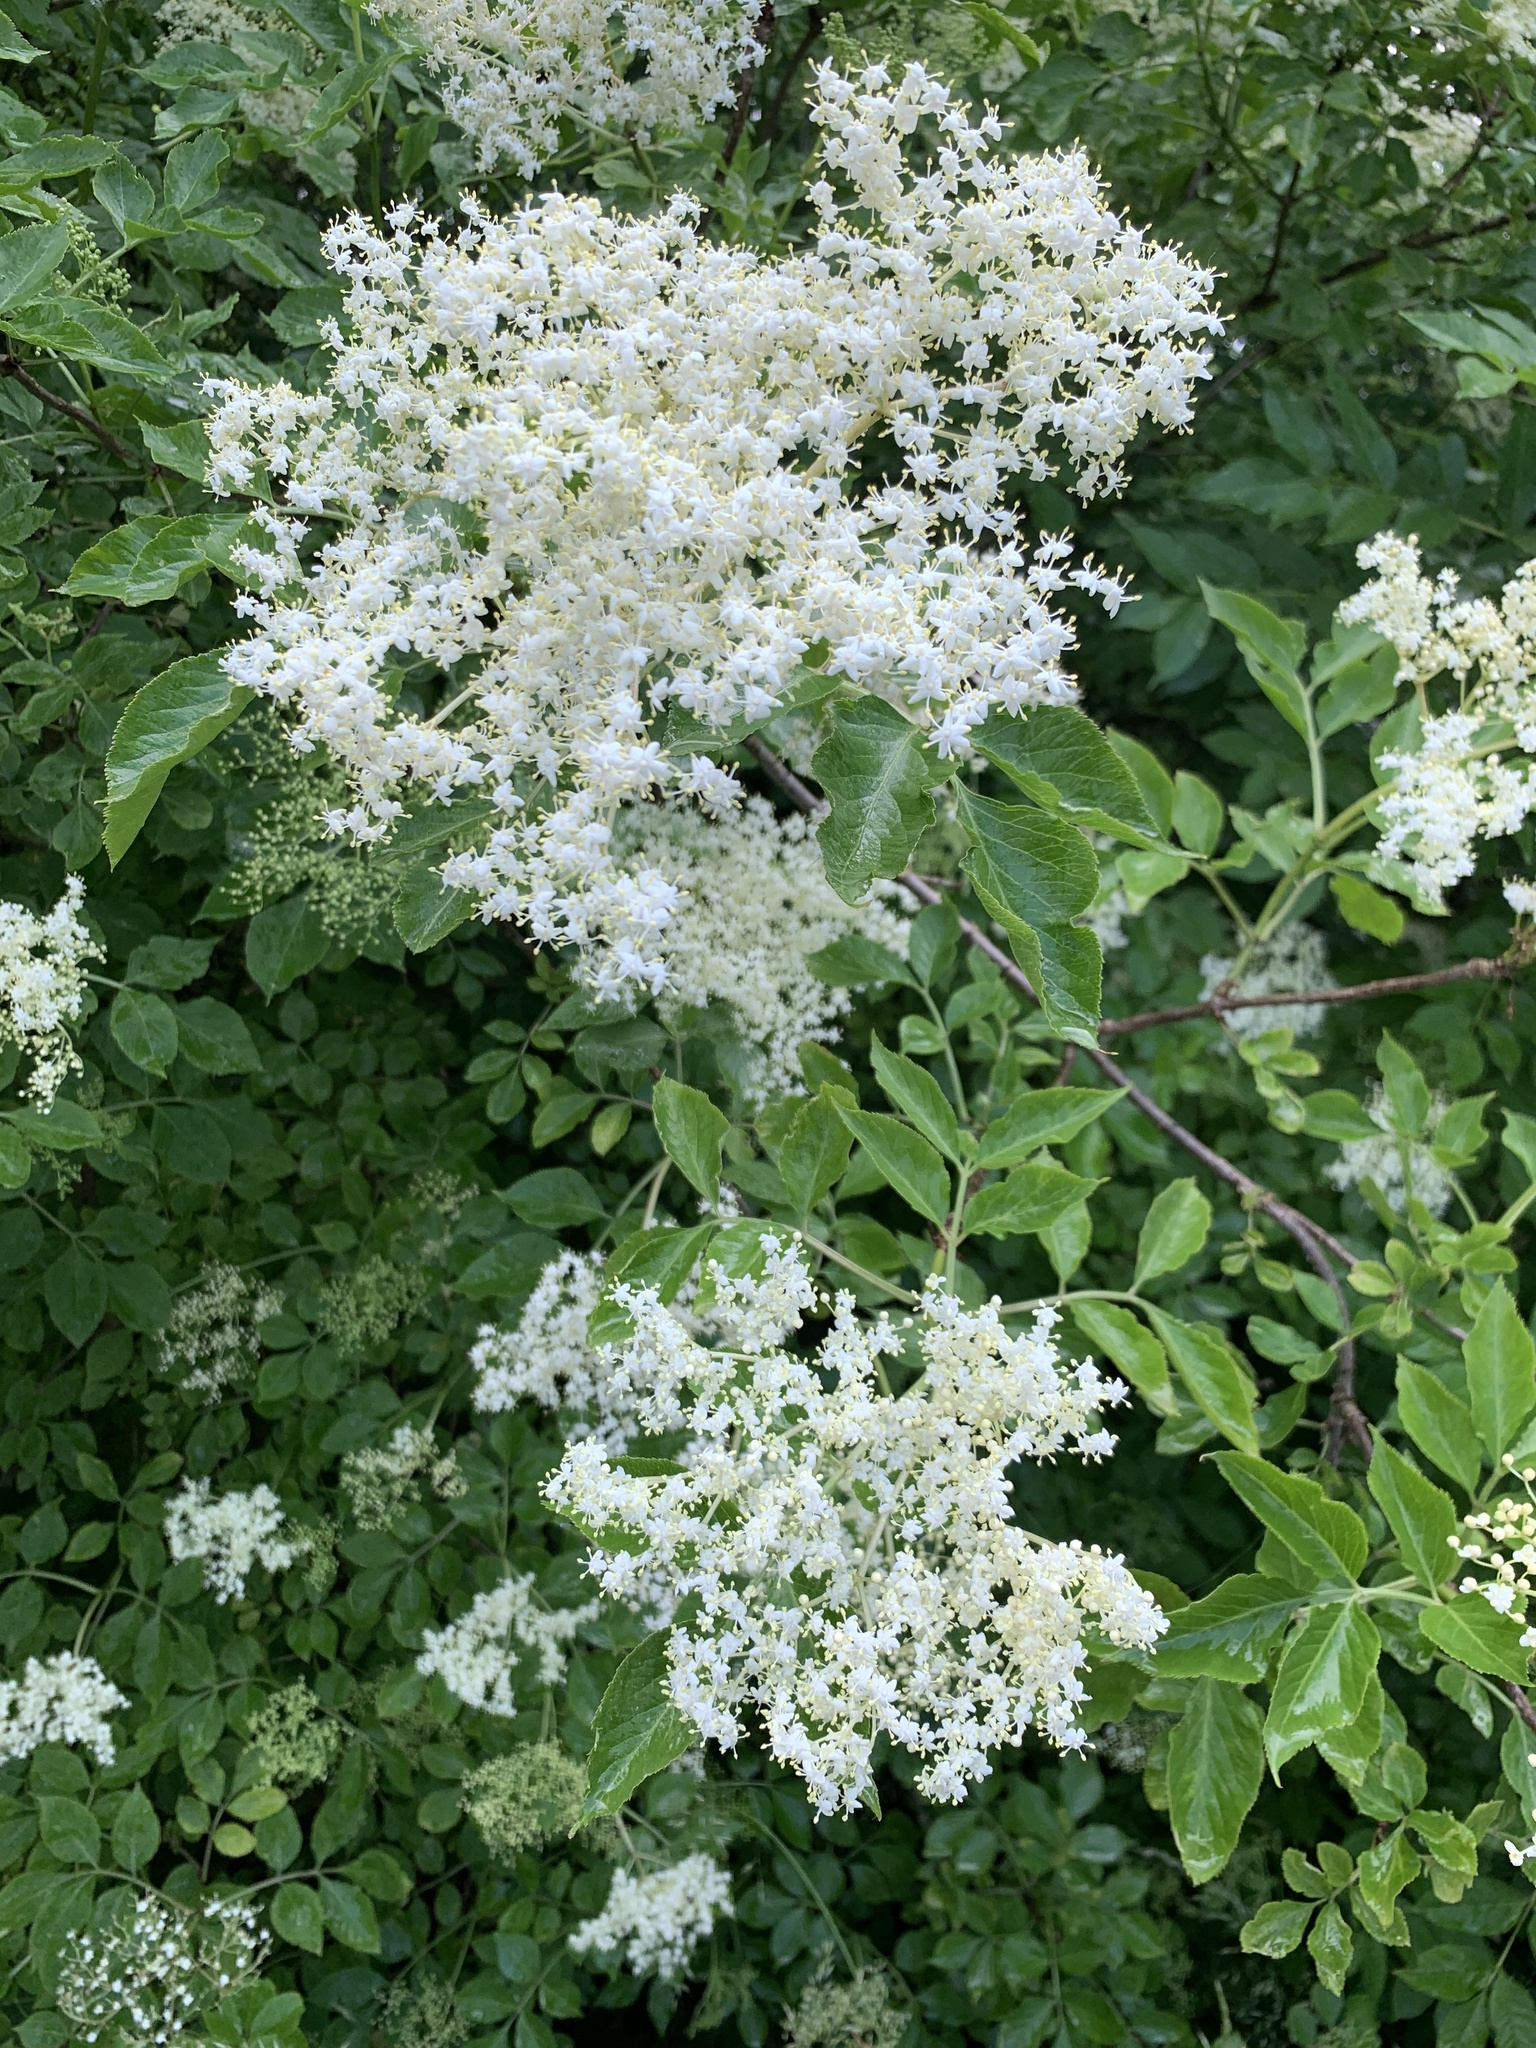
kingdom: Plantae
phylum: Tracheophyta
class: Magnoliopsida
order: Dipsacales
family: Viburnaceae
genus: Sambucus
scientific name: Sambucus nigra
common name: Elder
